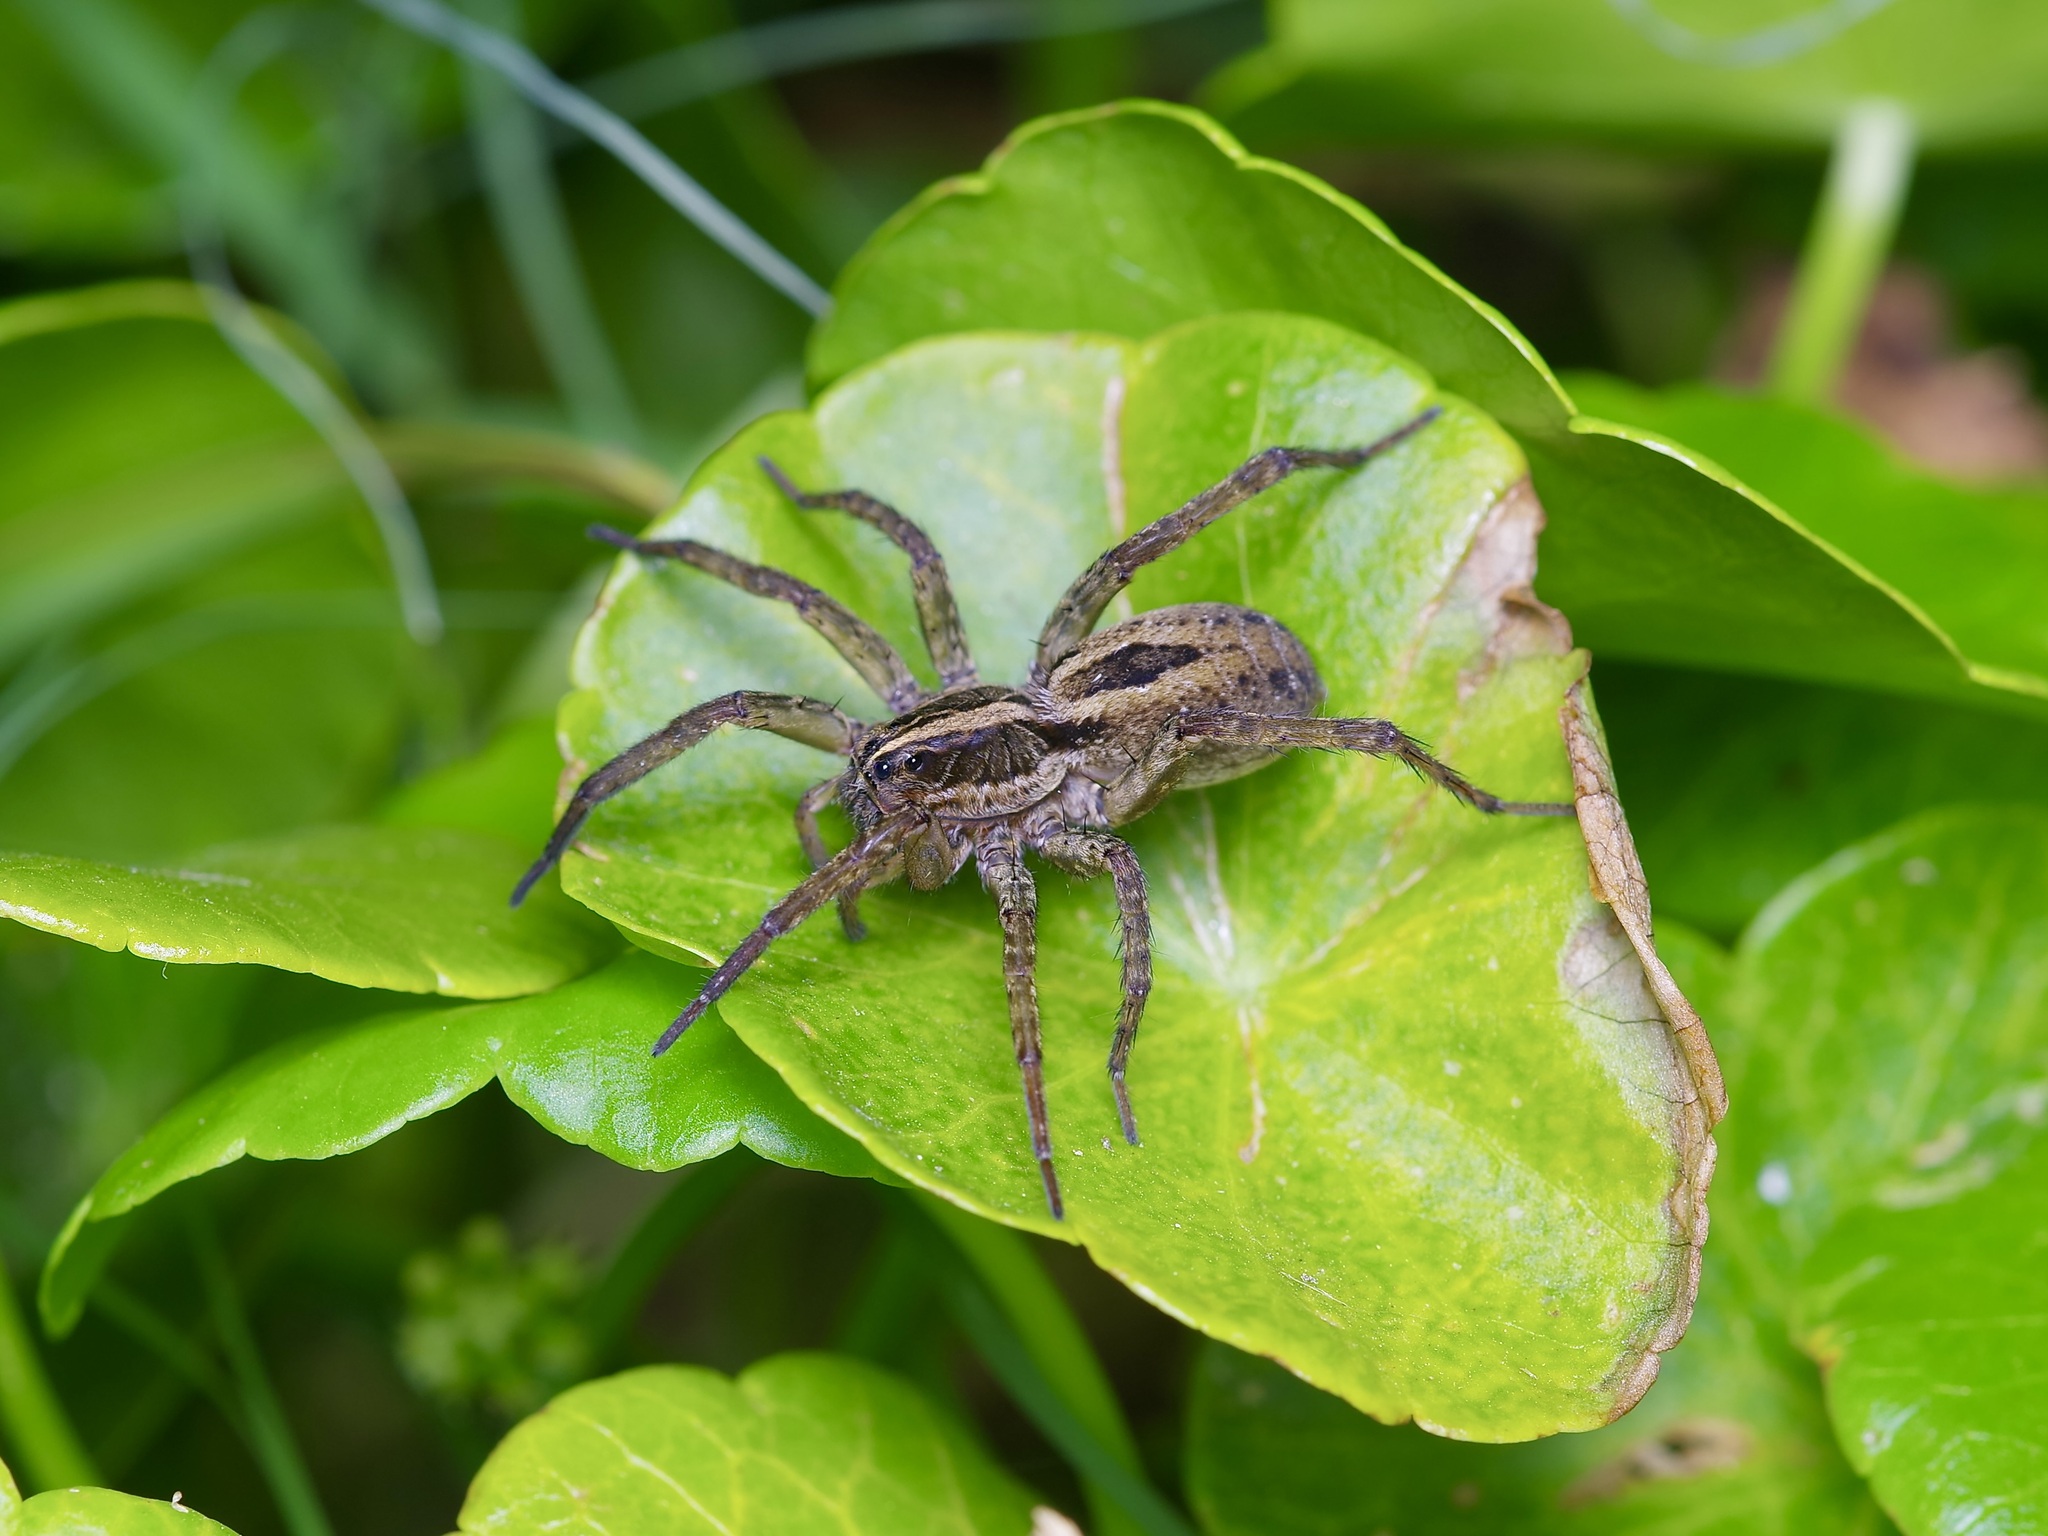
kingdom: Animalia
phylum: Arthropoda
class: Arachnida
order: Araneae
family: Lycosidae
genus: Tigrosa
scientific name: Tigrosa annexa
